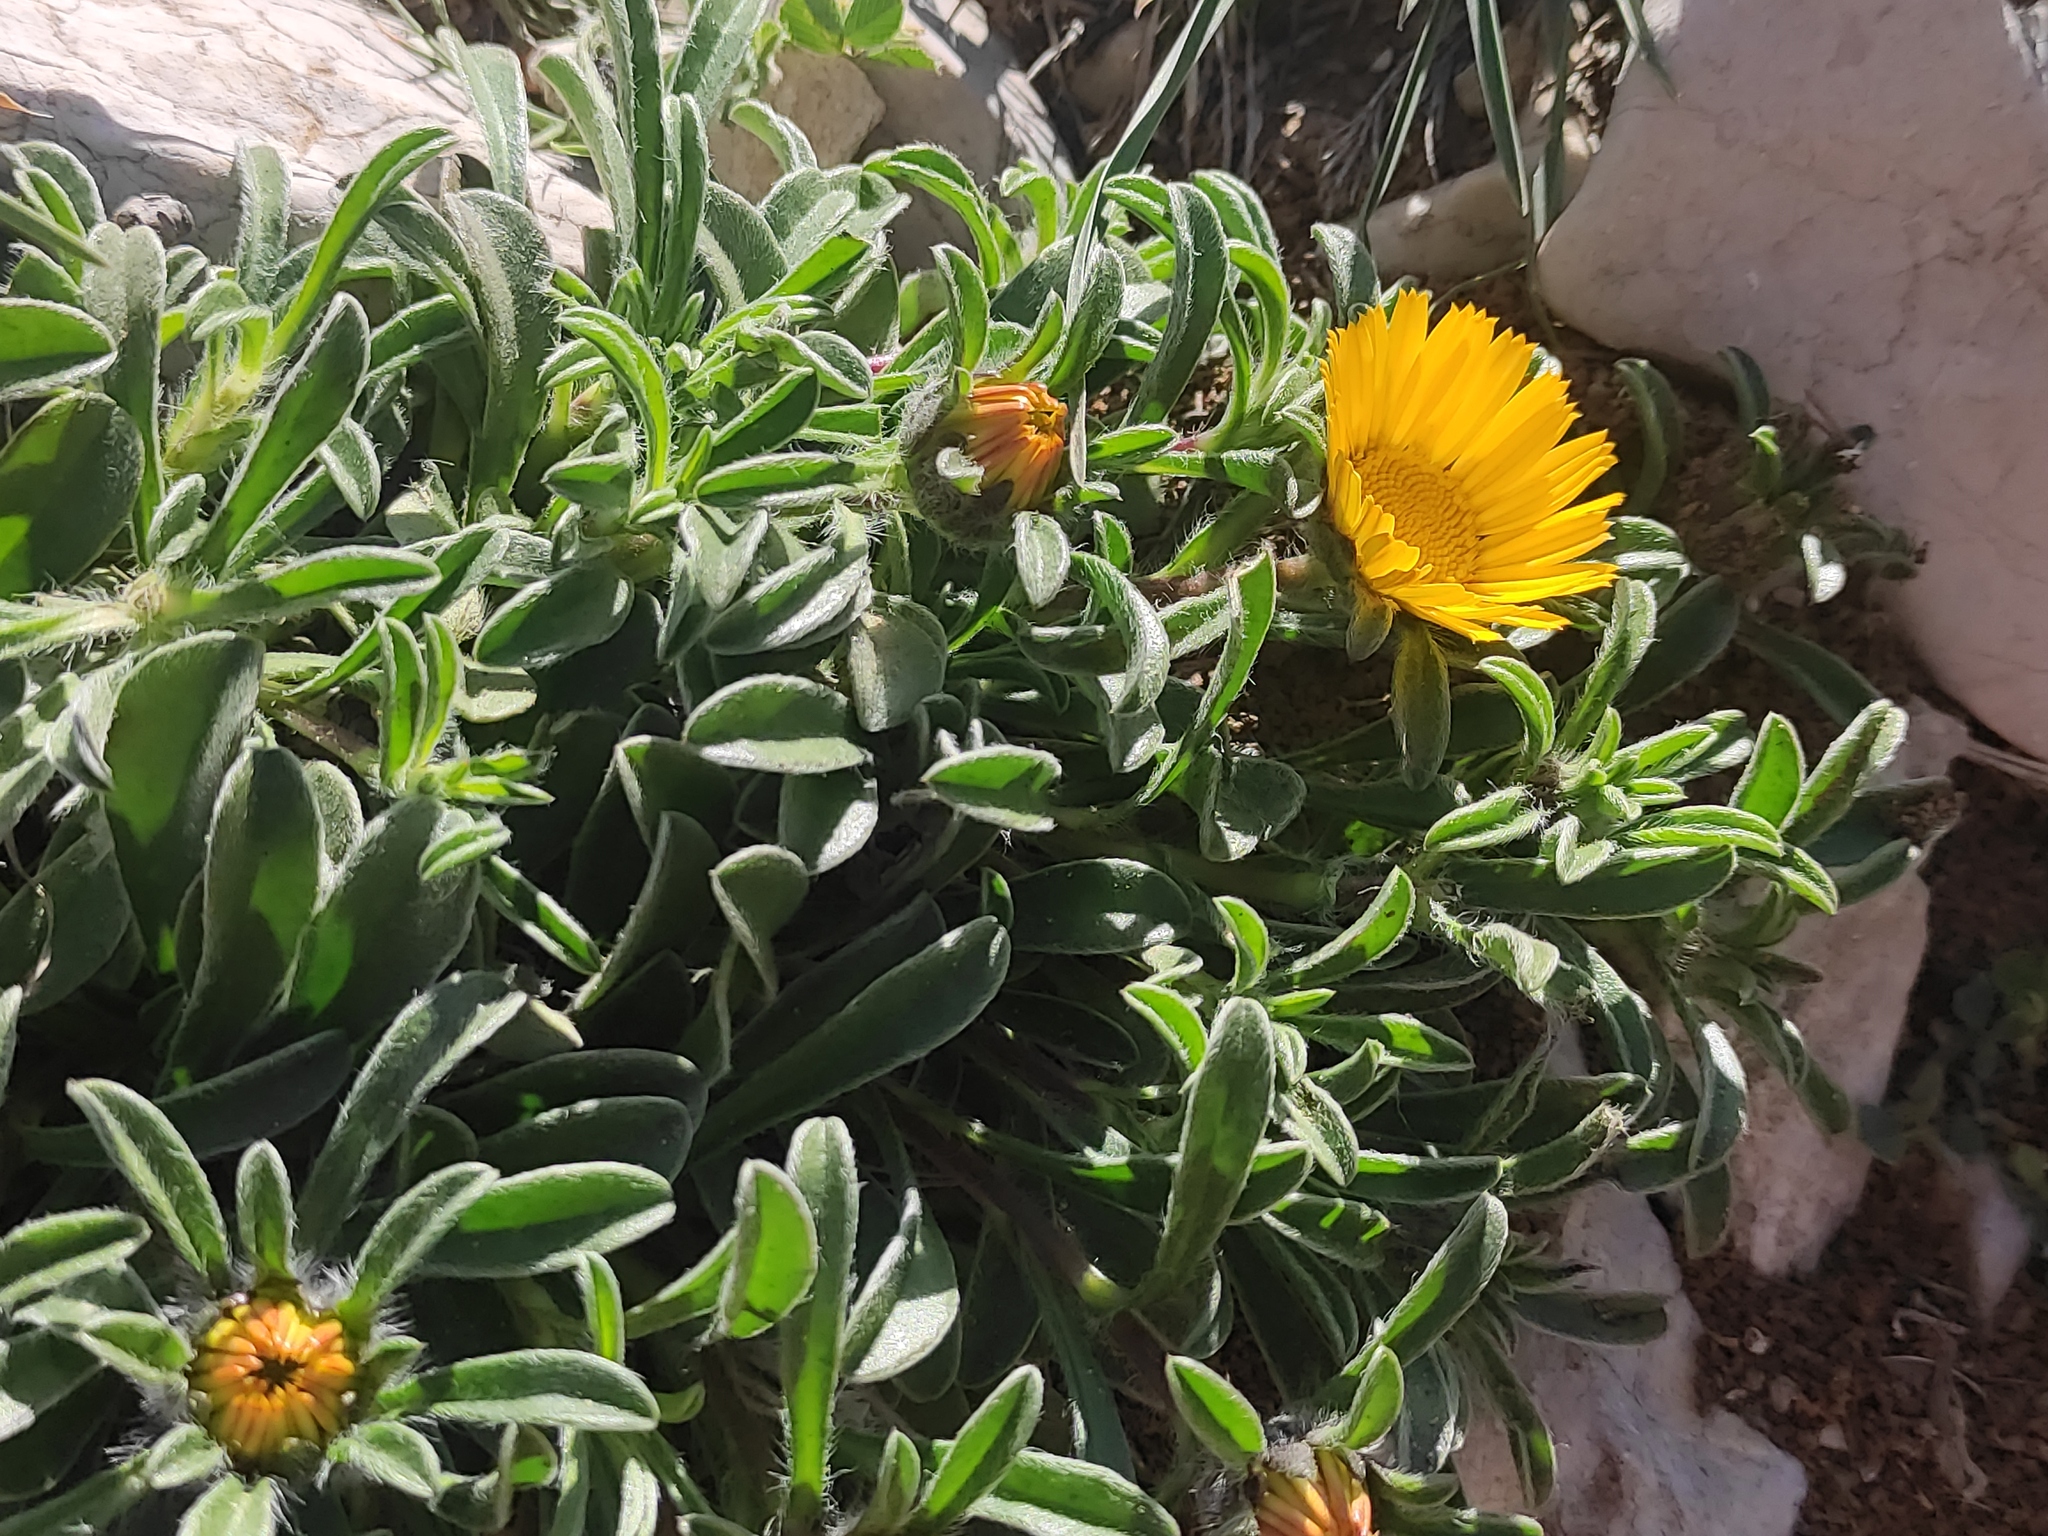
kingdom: Plantae
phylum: Tracheophyta
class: Magnoliopsida
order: Asterales
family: Asteraceae
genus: Pallenis
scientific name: Pallenis maritima
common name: Golden coin daisy
